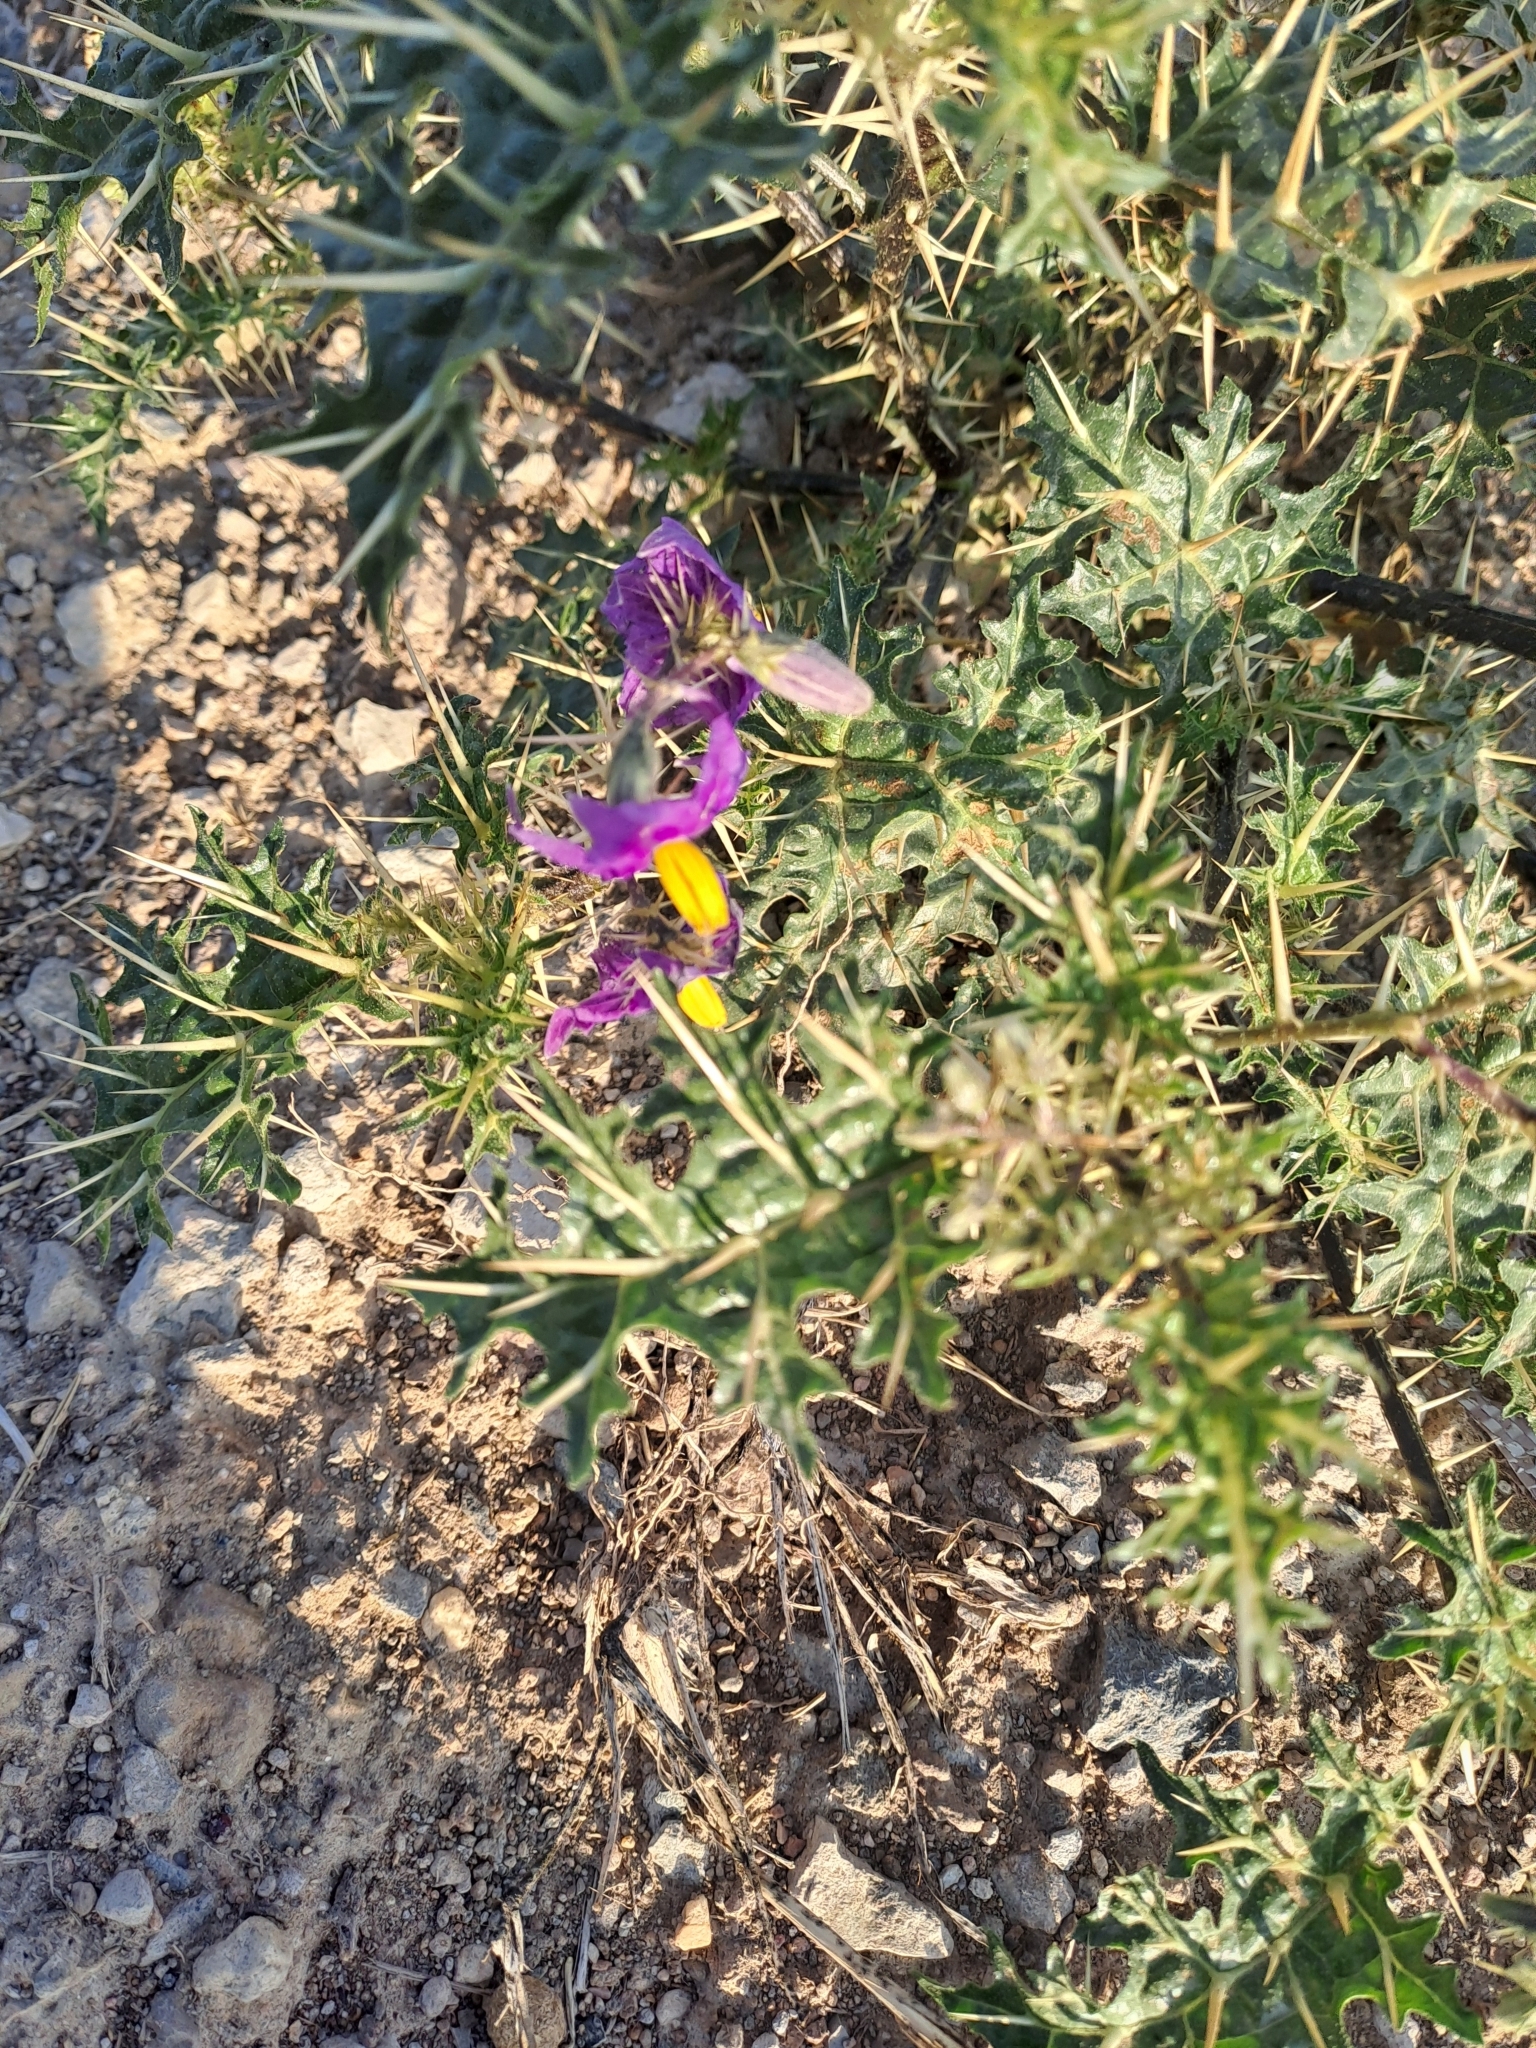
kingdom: Plantae
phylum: Tracheophyta
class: Magnoliopsida
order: Solanales
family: Solanaceae
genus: Solanum
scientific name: Solanum virginianum
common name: Surattense nightshade
